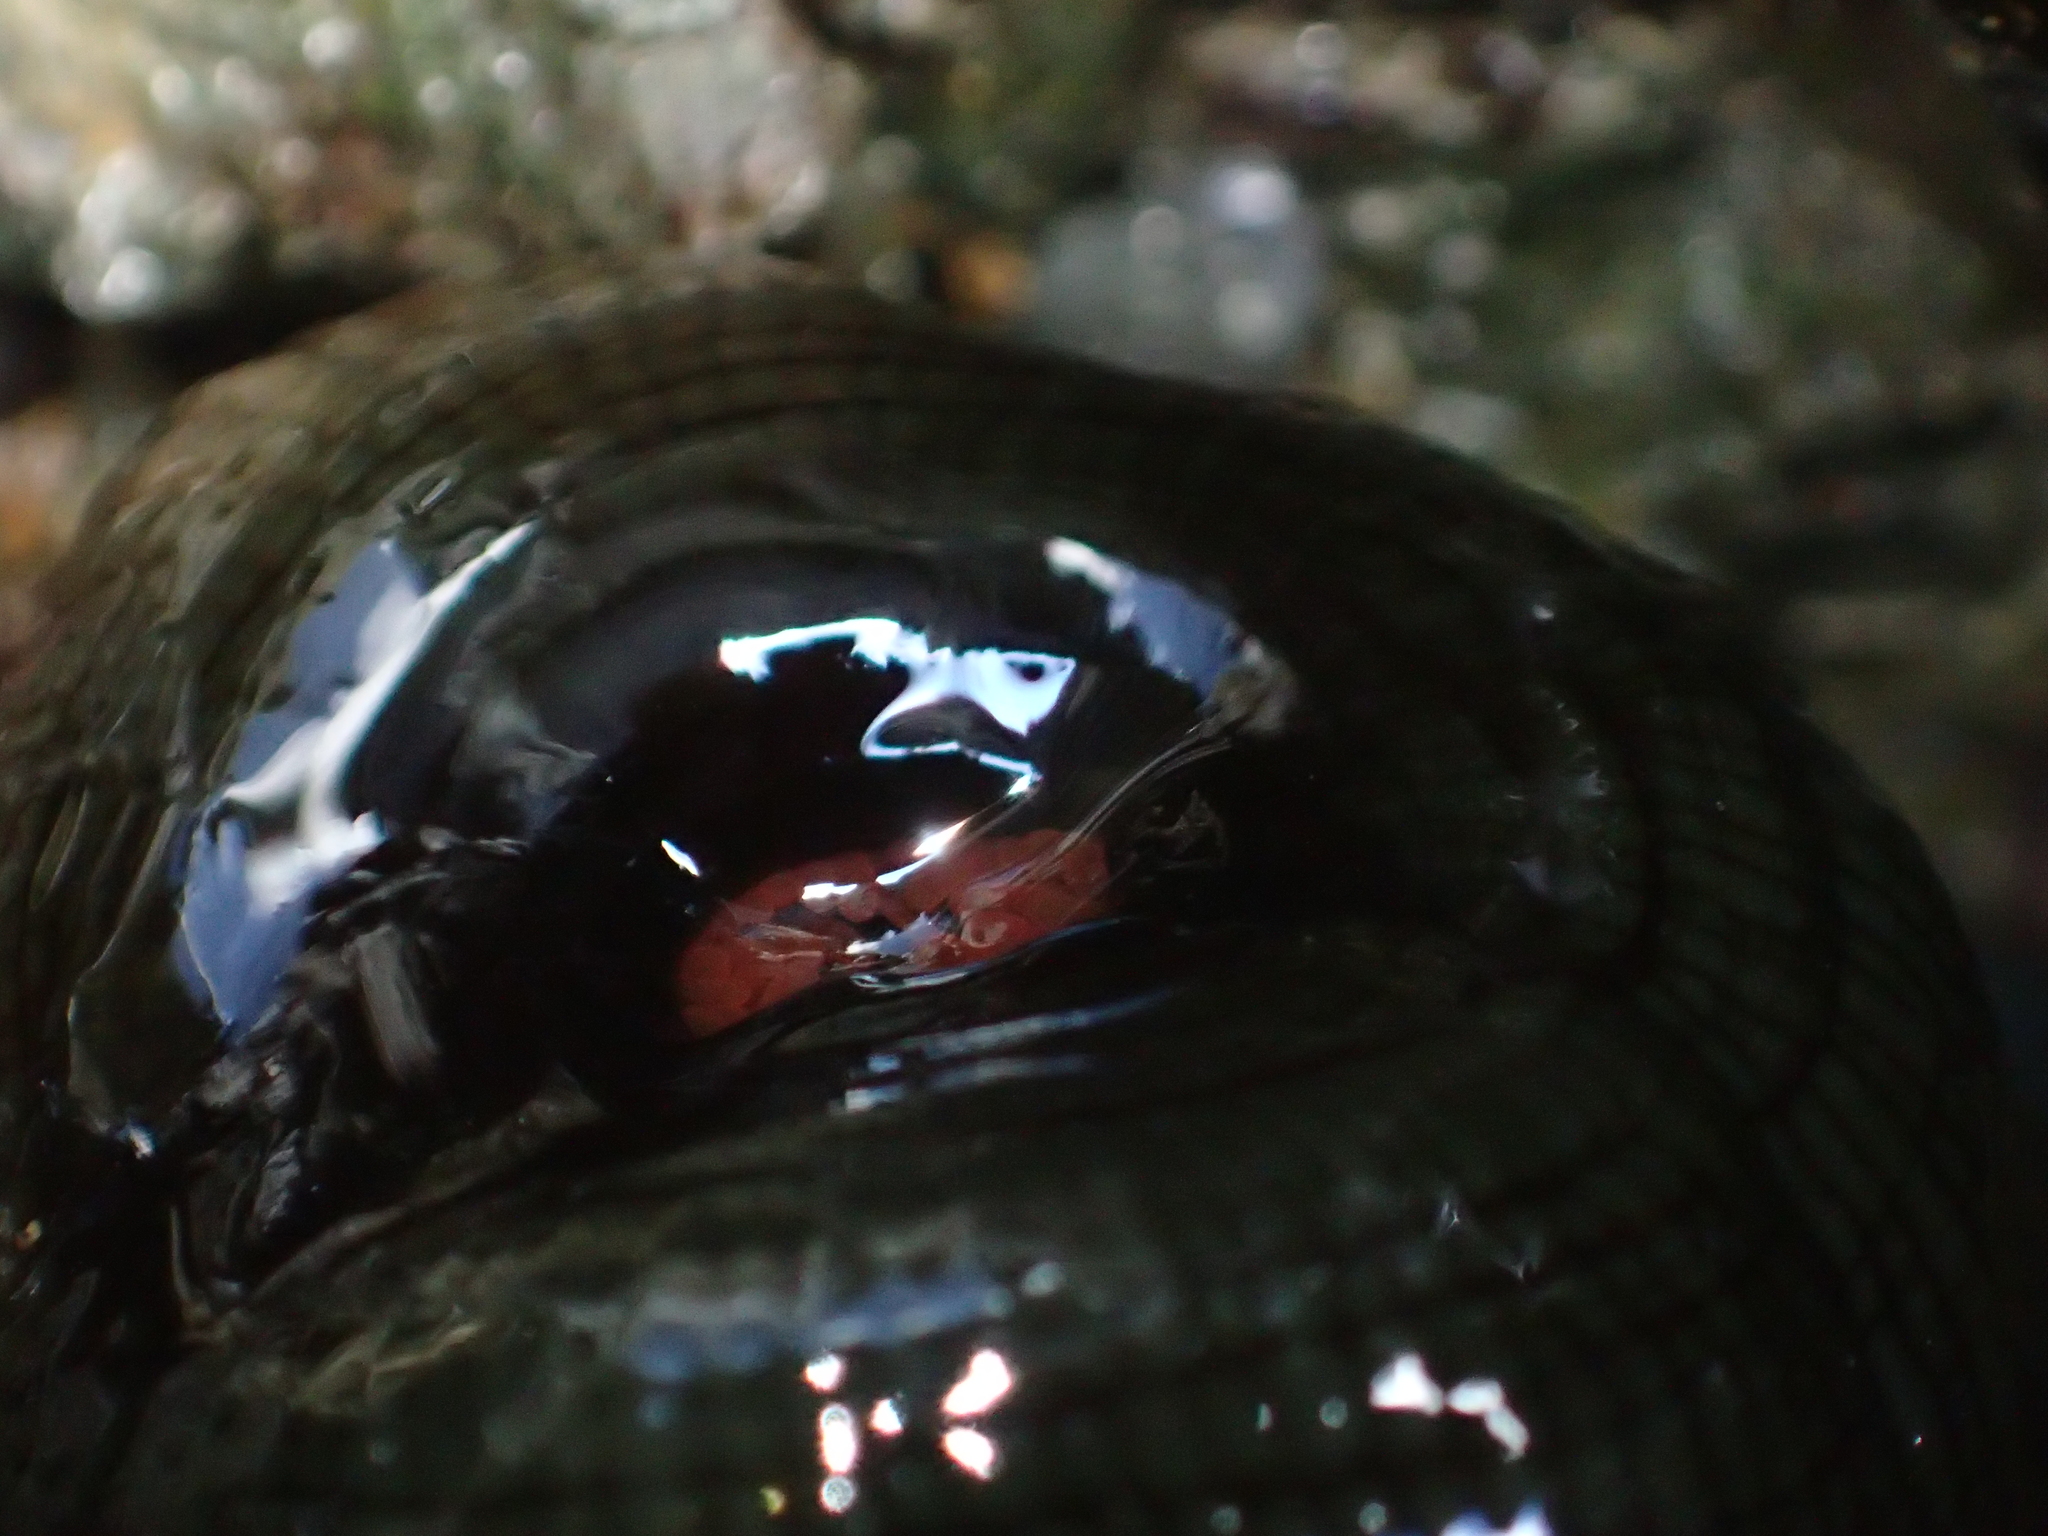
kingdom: Animalia
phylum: Cnidaria
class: Anthozoa
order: Actiniaria
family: Actiniidae
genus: Actinia
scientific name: Actinia tenebrosa
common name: Waratah anemone
